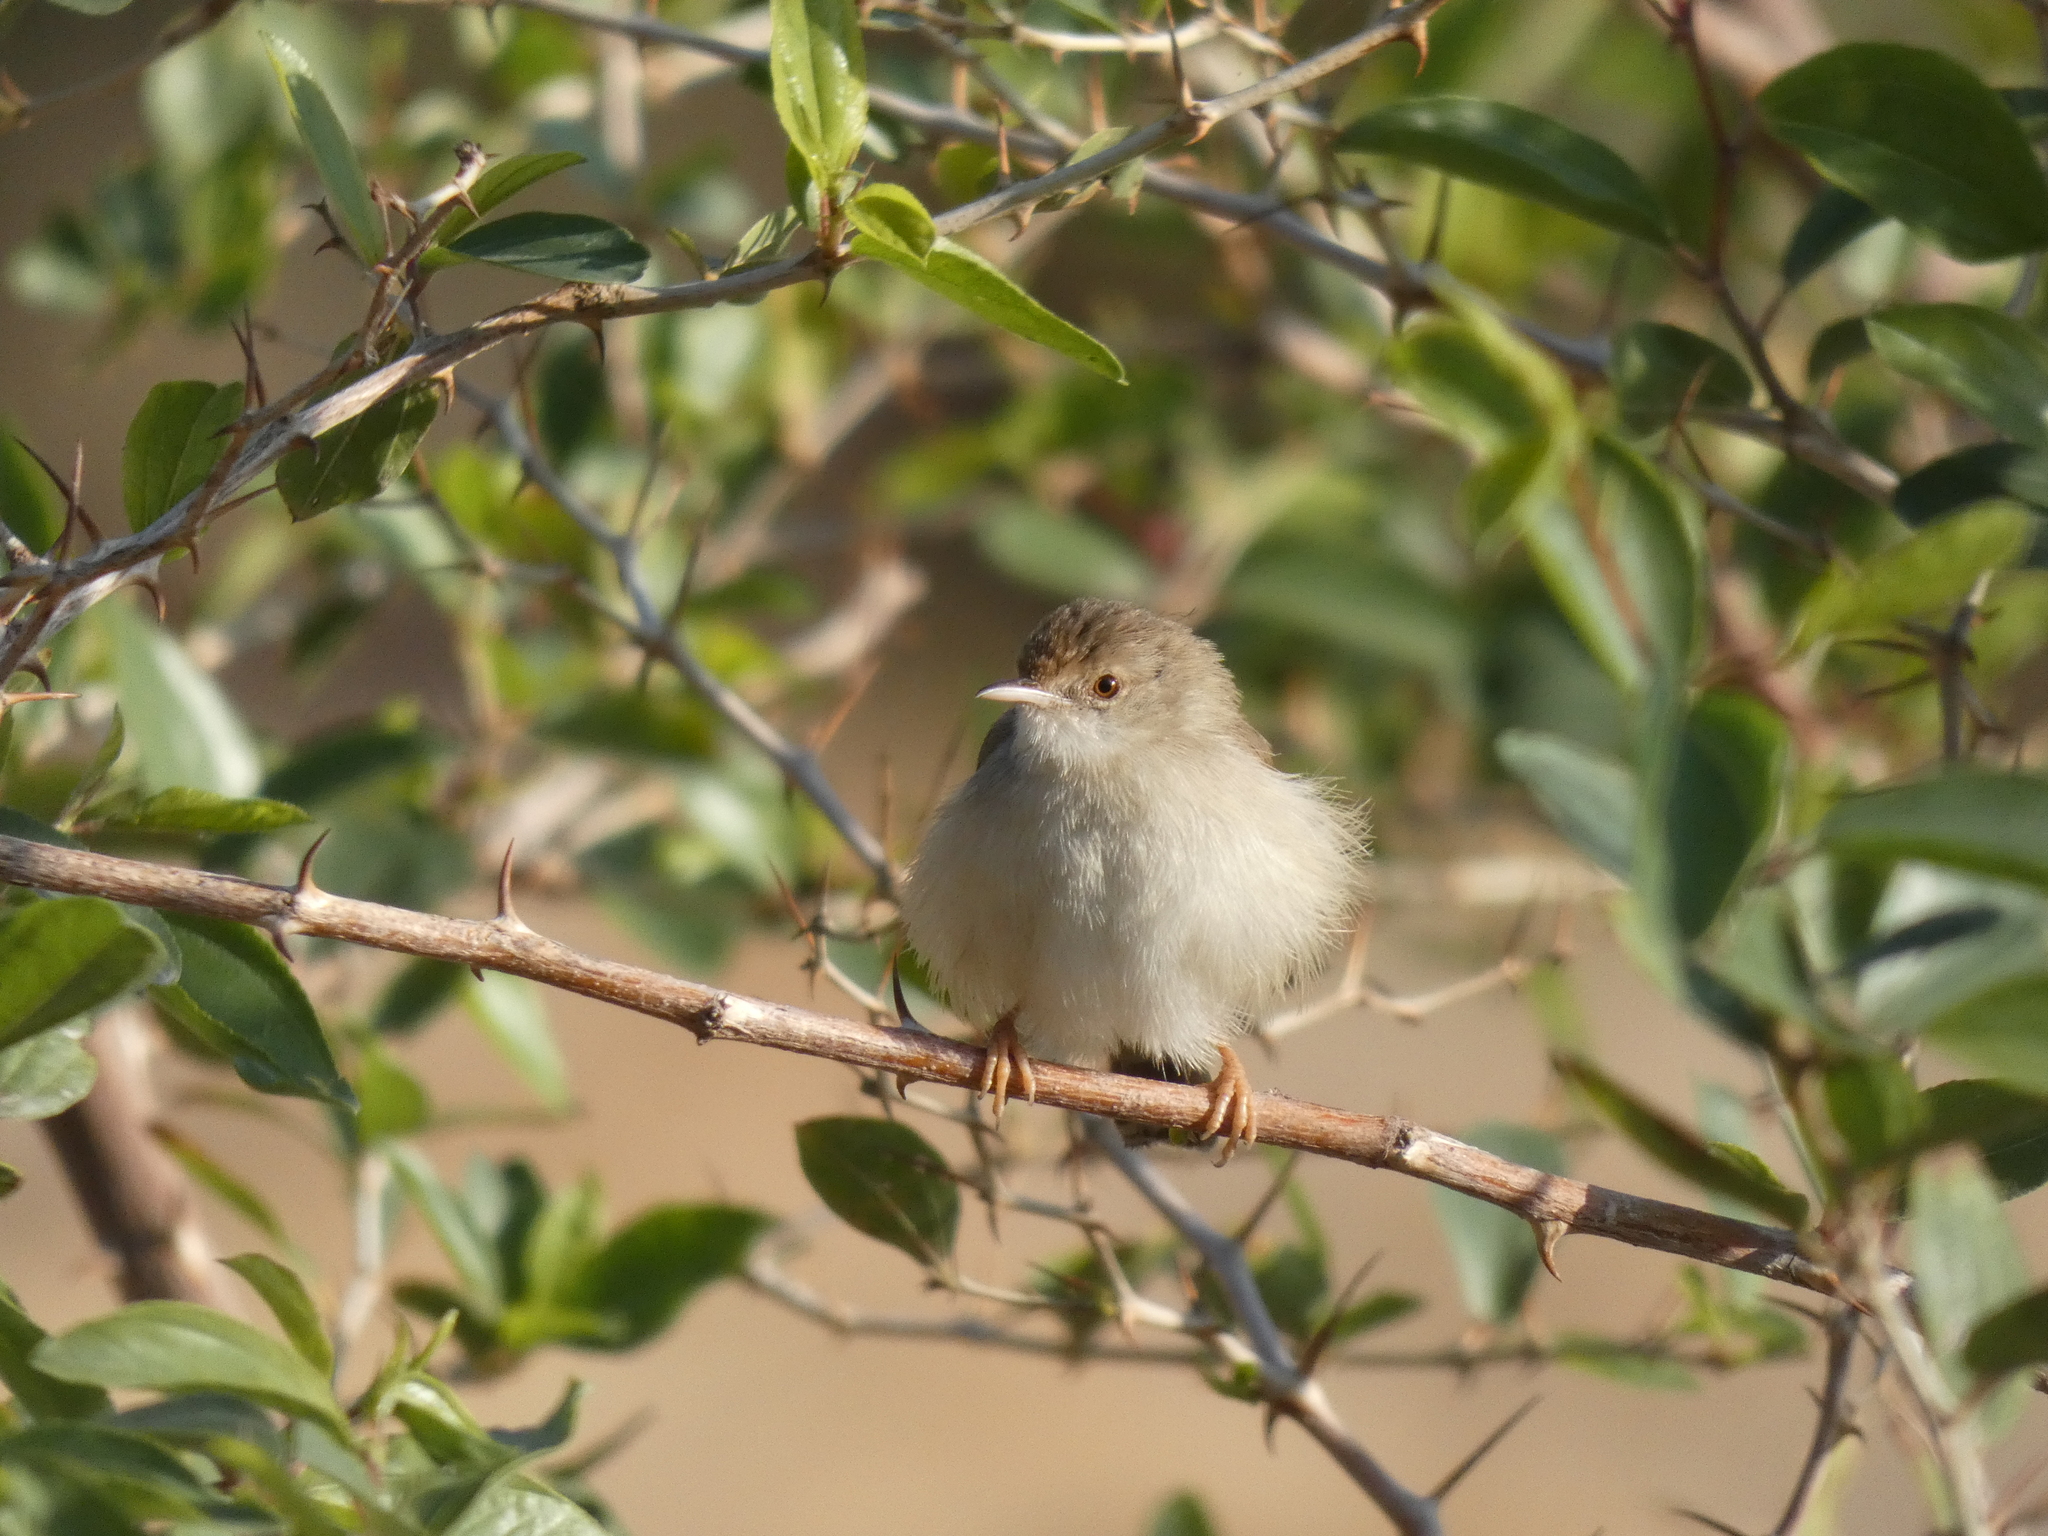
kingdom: Animalia
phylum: Chordata
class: Aves
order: Passeriformes
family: Cisticolidae
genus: Prinia
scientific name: Prinia gracilis
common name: Graceful prinia
